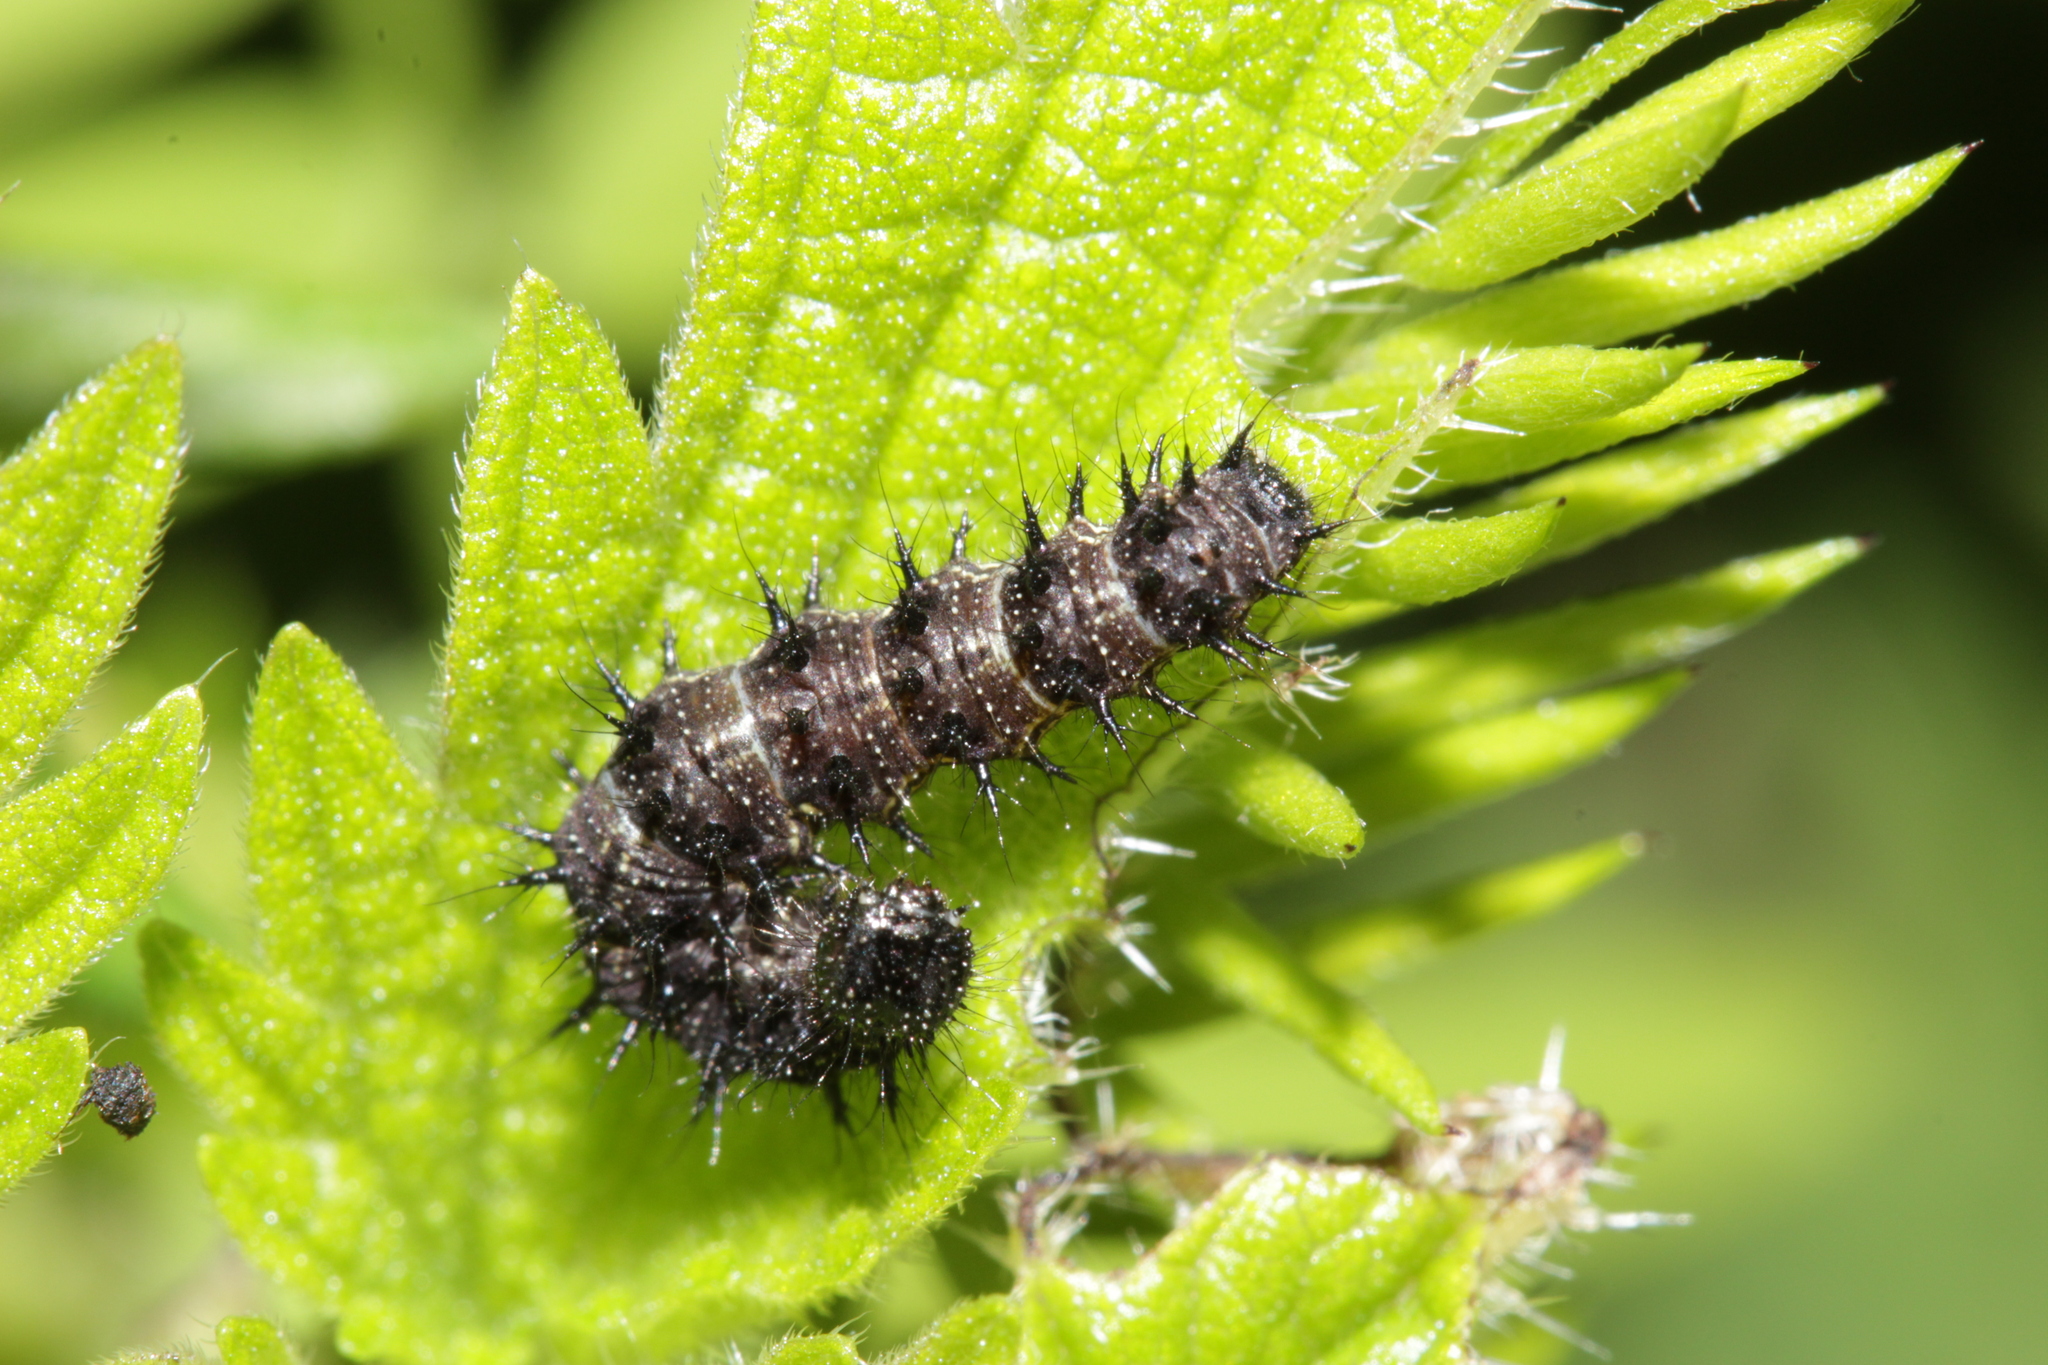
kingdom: Animalia
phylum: Arthropoda
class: Insecta
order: Lepidoptera
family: Nymphalidae
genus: Vanessa
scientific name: Vanessa atalanta
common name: Red admiral
